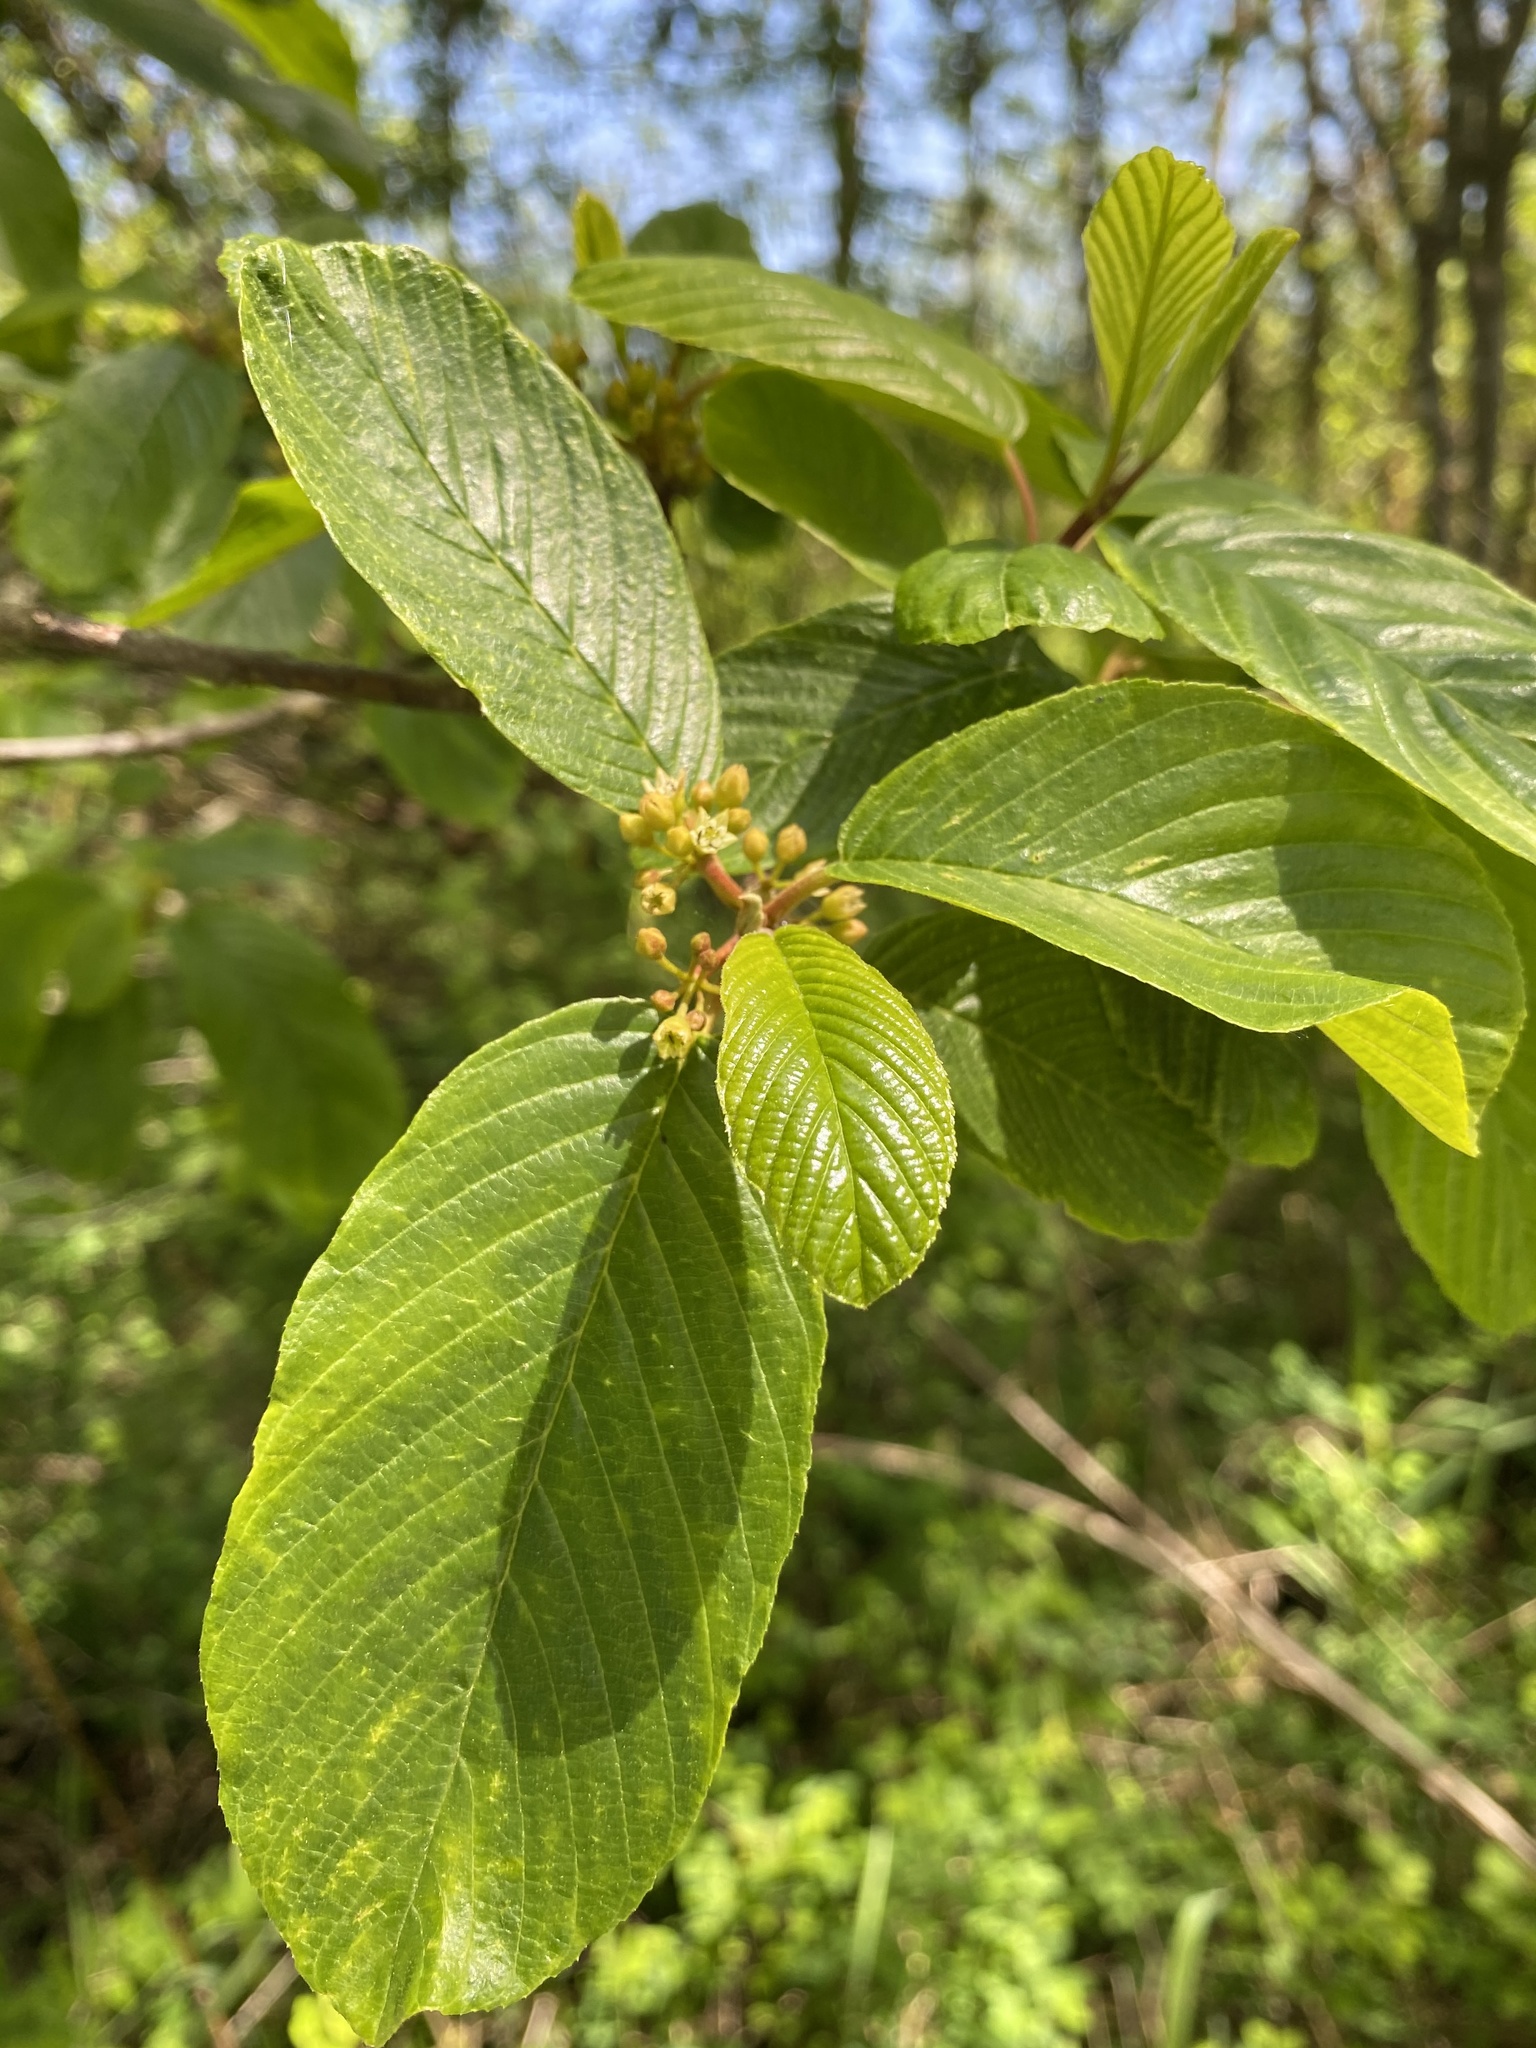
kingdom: Plantae
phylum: Tracheophyta
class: Magnoliopsida
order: Rosales
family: Rhamnaceae
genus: Frangula
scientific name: Frangula purshiana
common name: Cascara buckthorn
